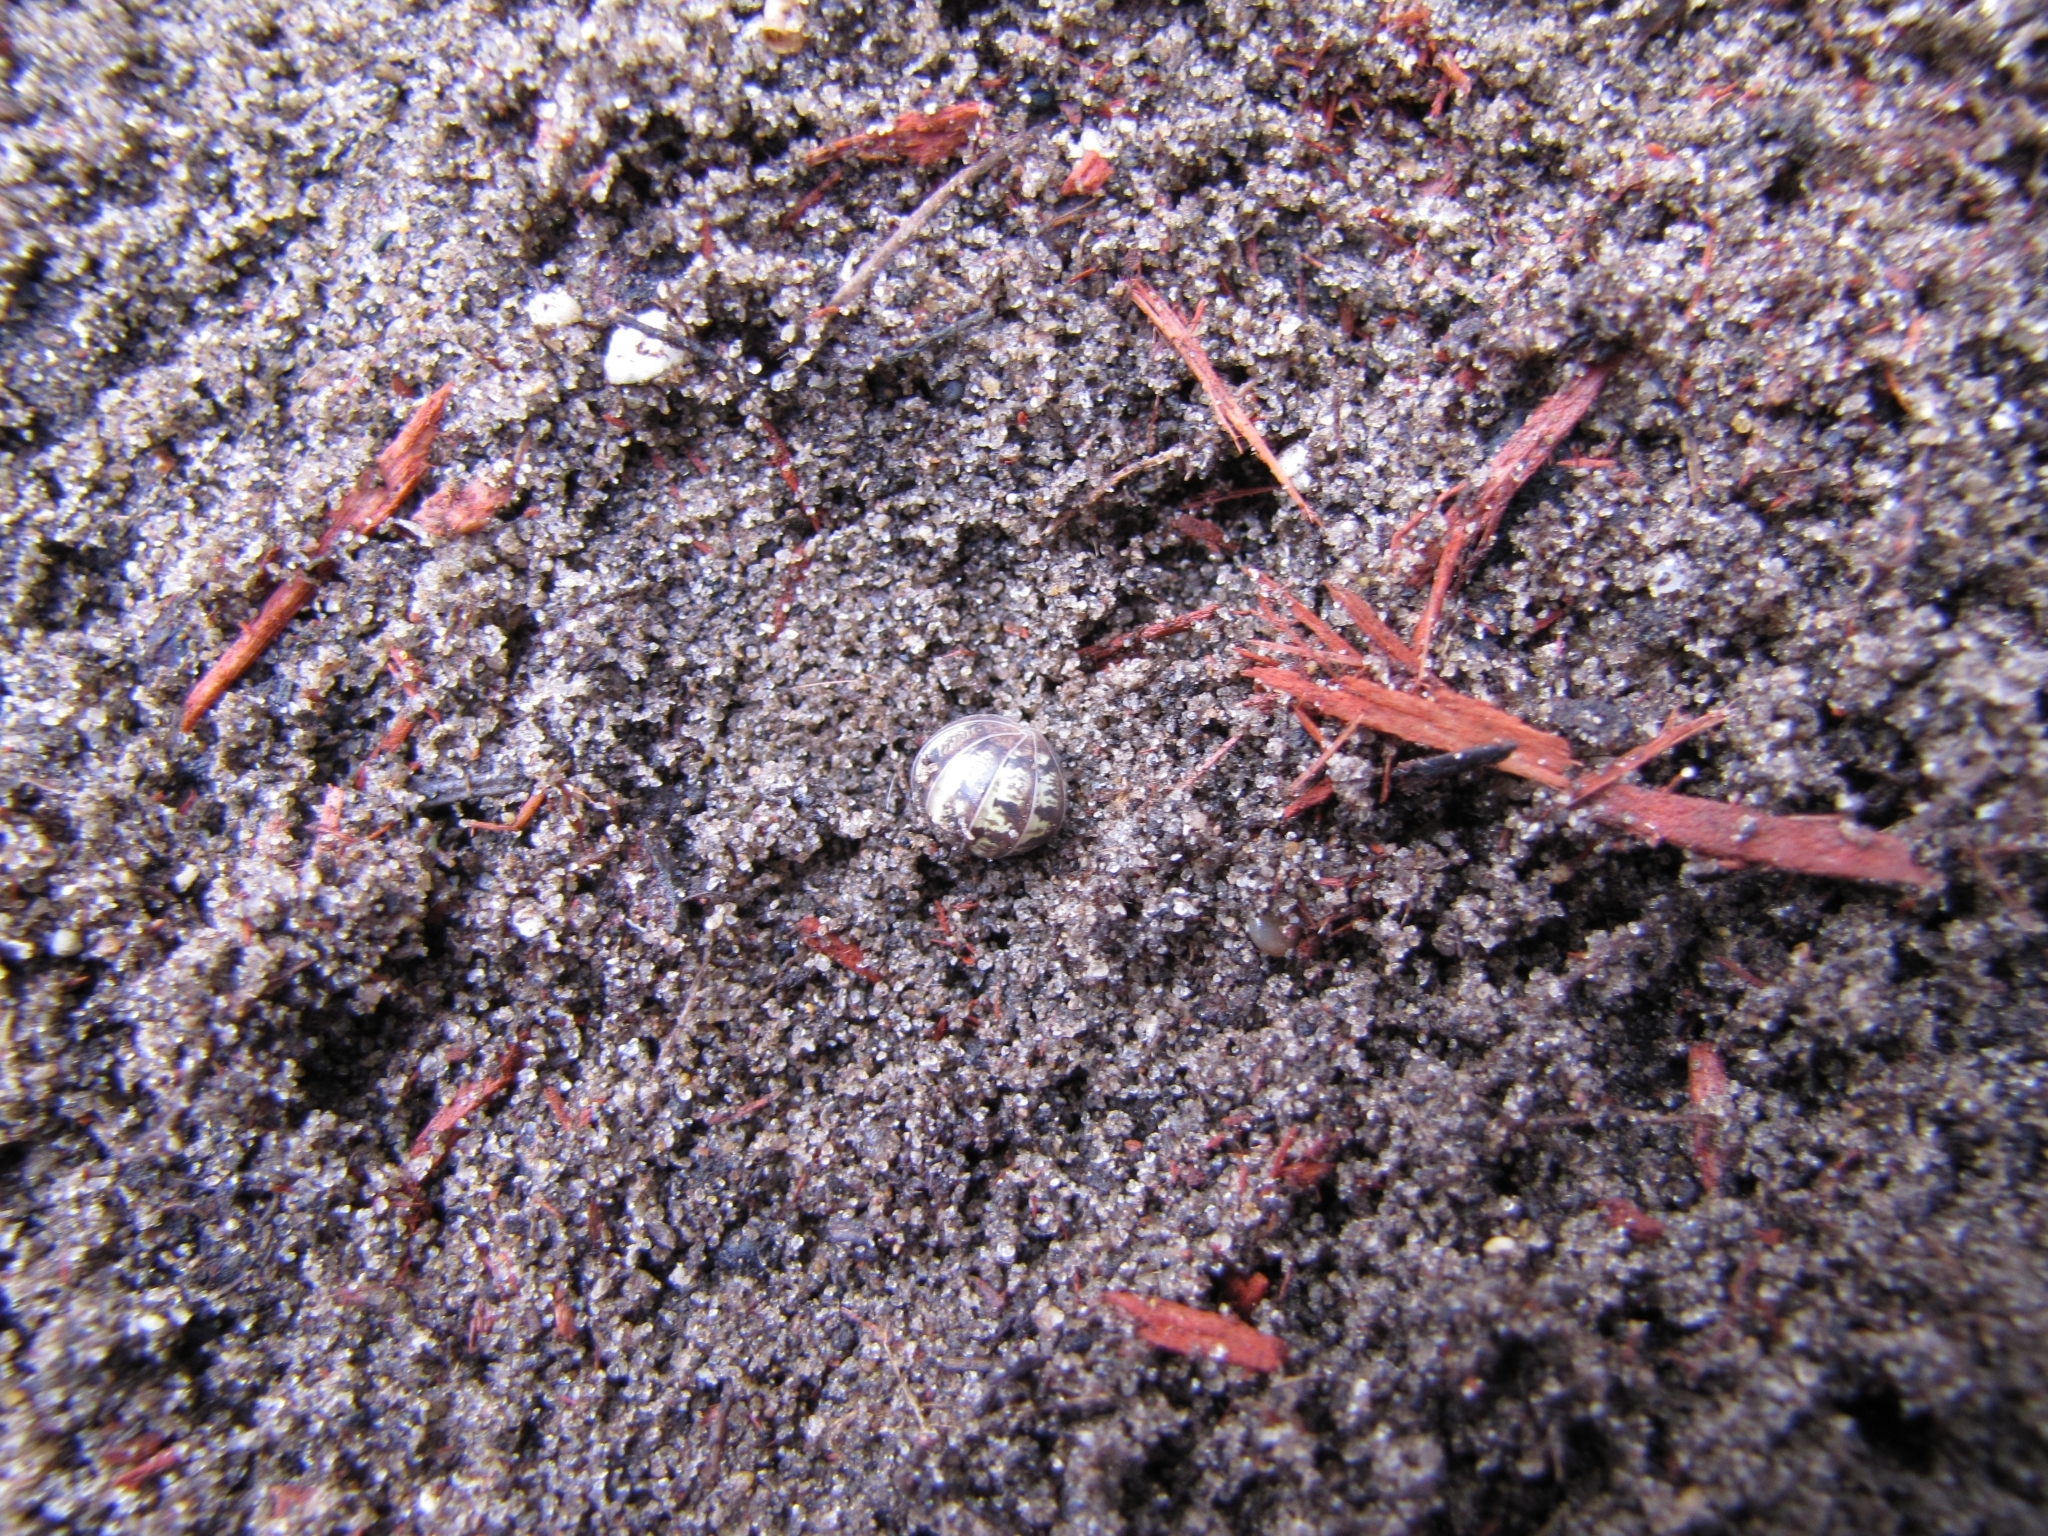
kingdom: Animalia
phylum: Arthropoda
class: Malacostraca
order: Isopoda
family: Armadillidiidae
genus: Armadillidium
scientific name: Armadillidium vulgare
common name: Common pill woodlouse
